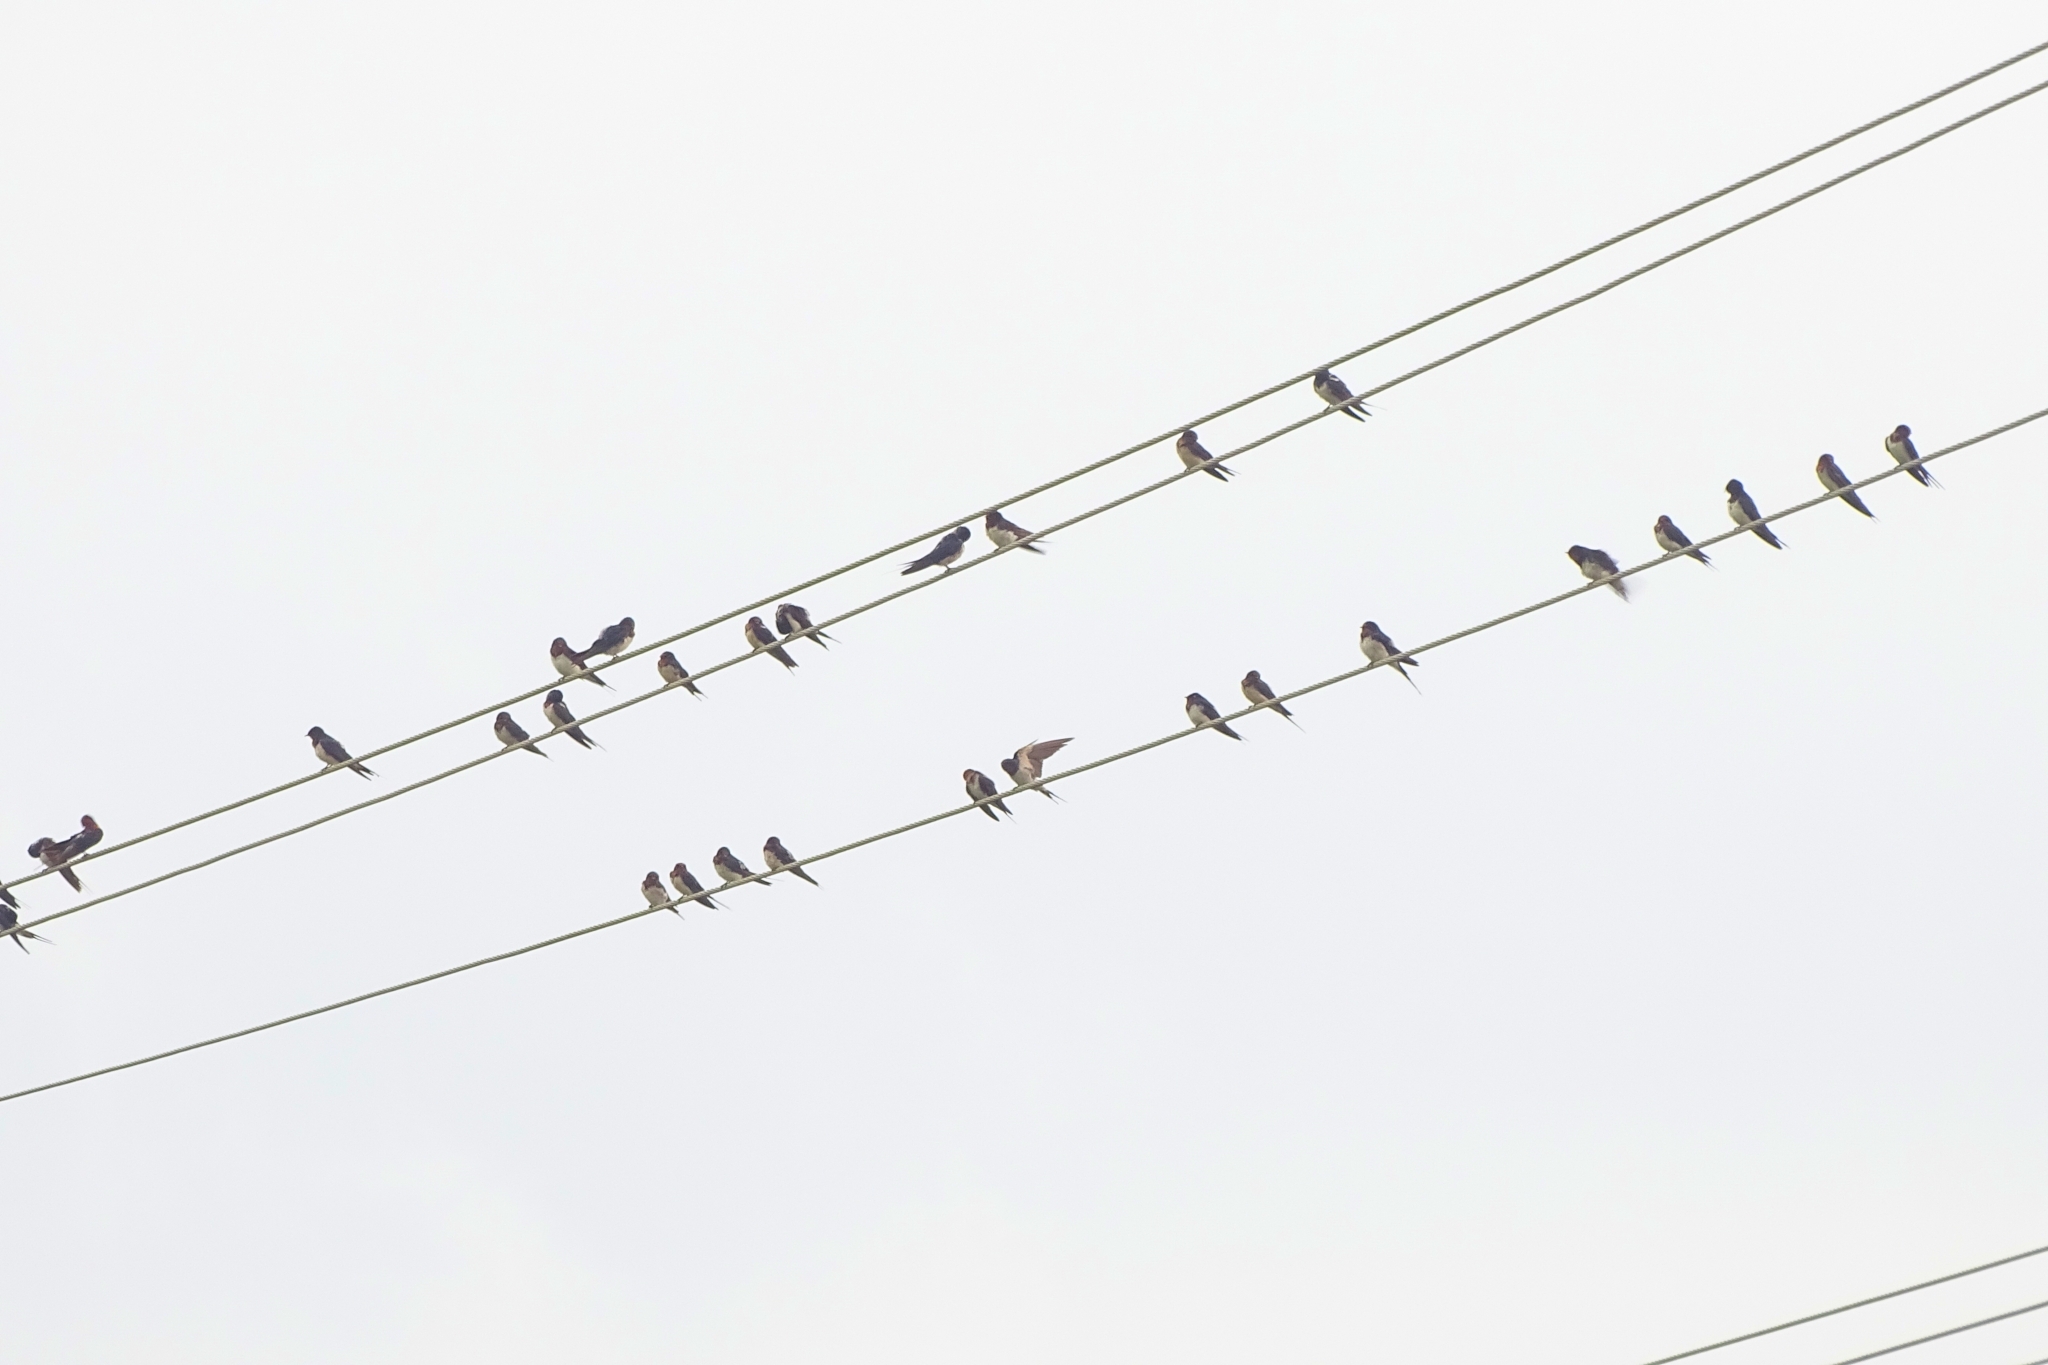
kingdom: Animalia
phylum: Chordata
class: Aves
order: Passeriformes
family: Hirundinidae
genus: Hirundo
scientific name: Hirundo rustica
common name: Barn swallow
